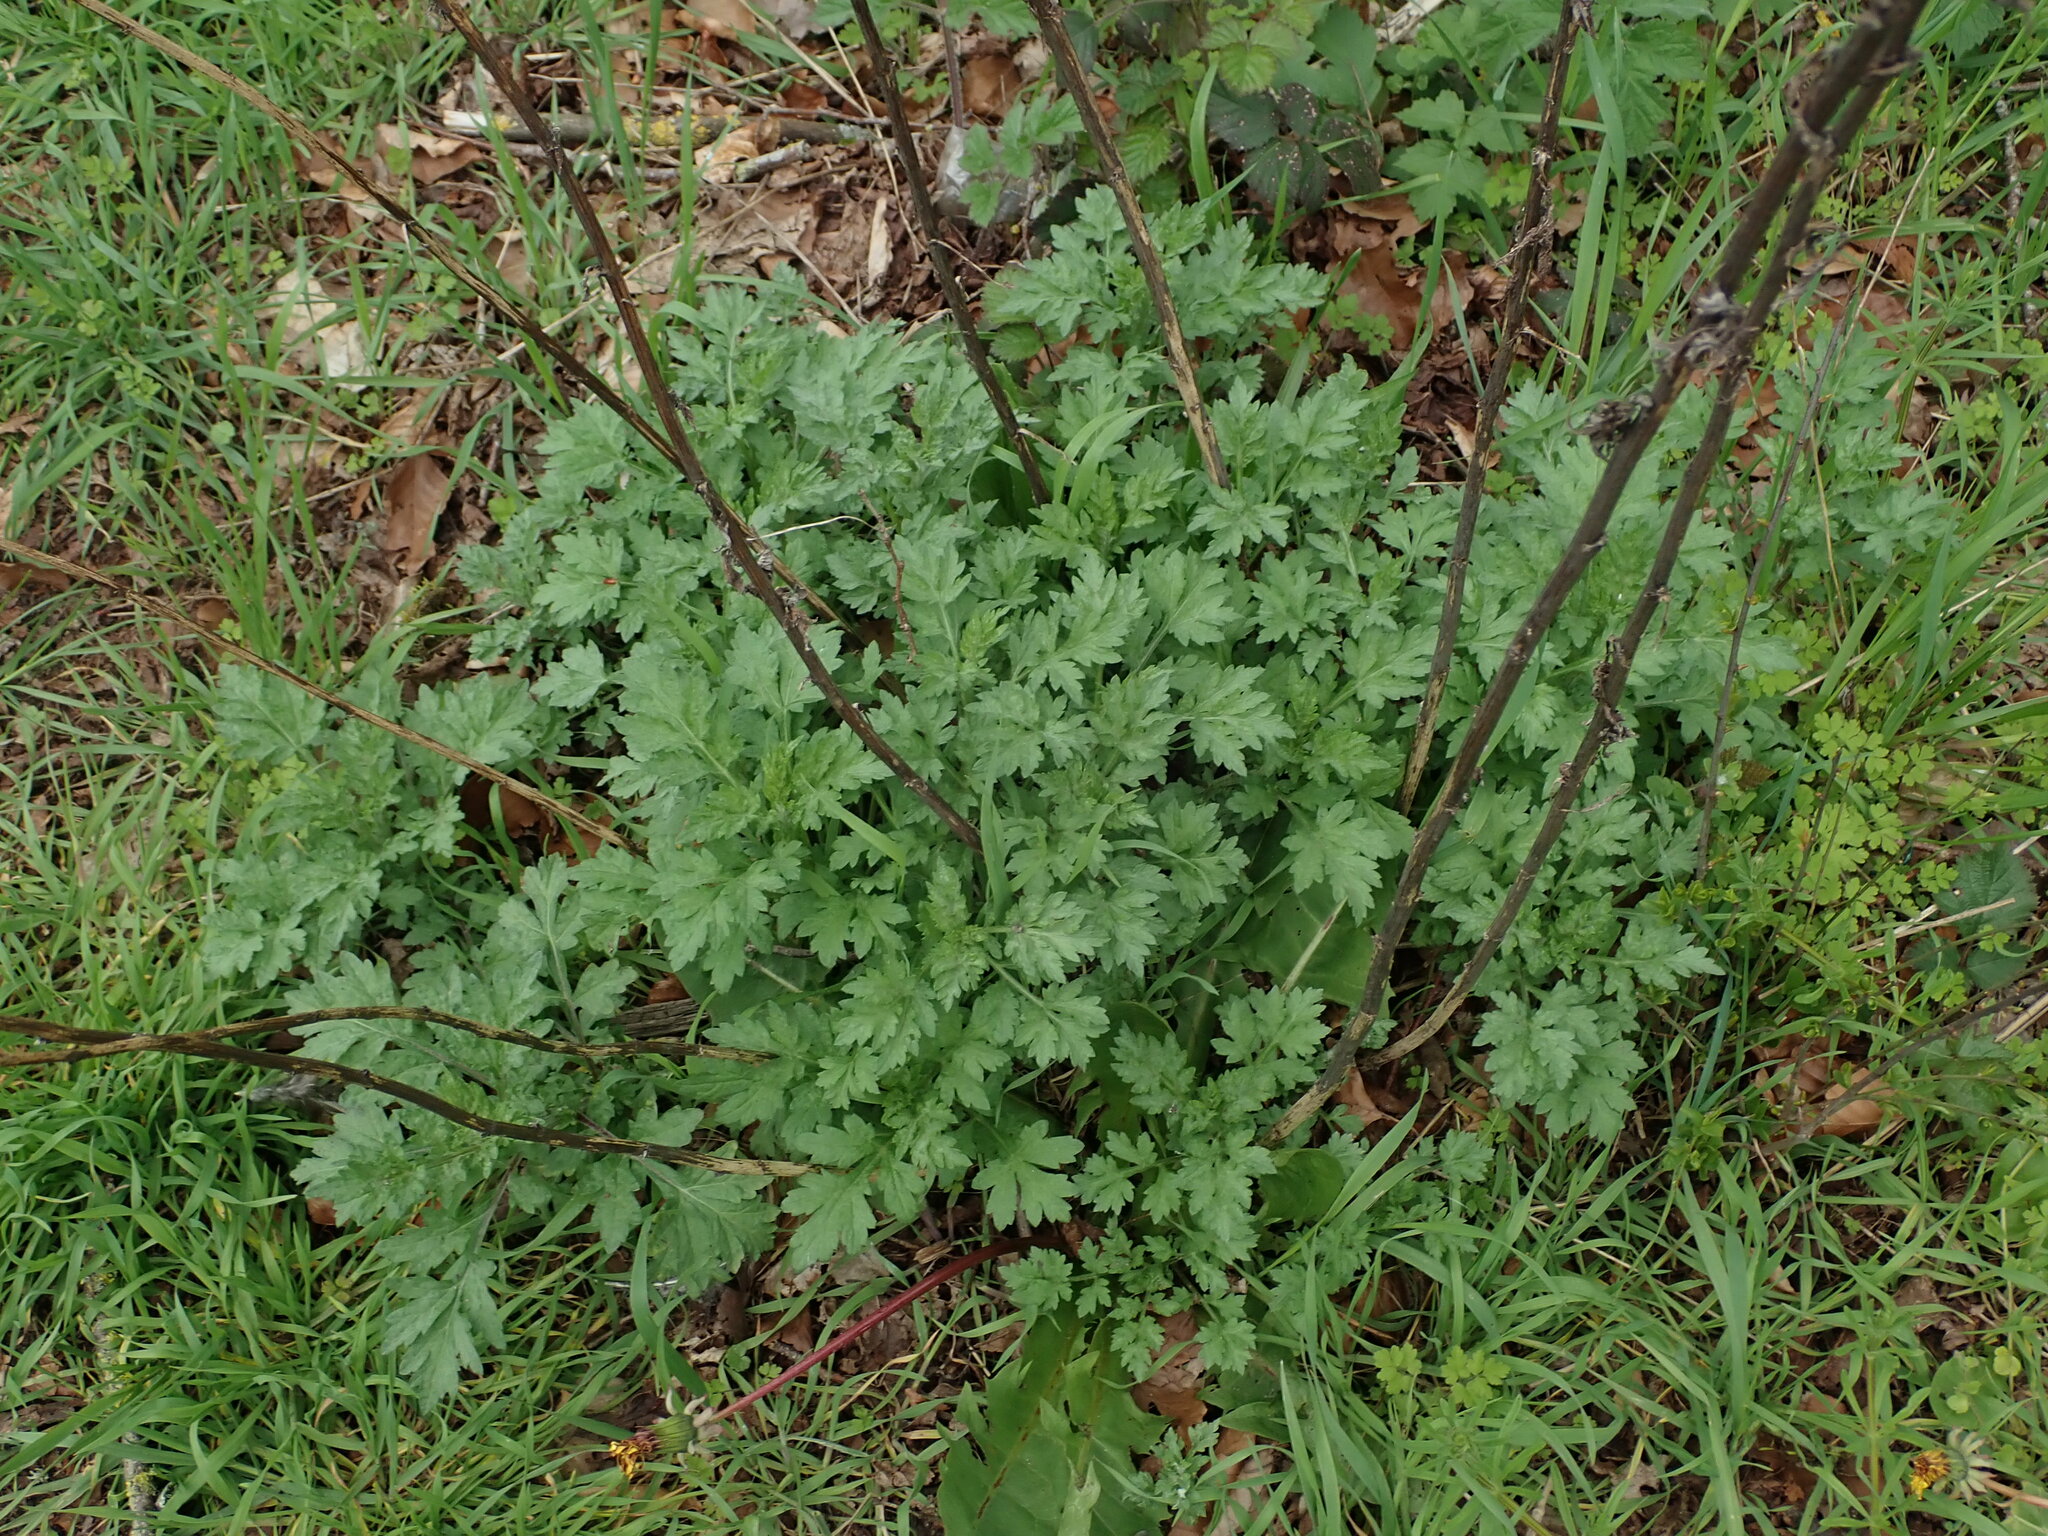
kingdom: Plantae
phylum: Tracheophyta
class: Magnoliopsida
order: Asterales
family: Asteraceae
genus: Artemisia
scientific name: Artemisia vulgaris
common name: Mugwort
